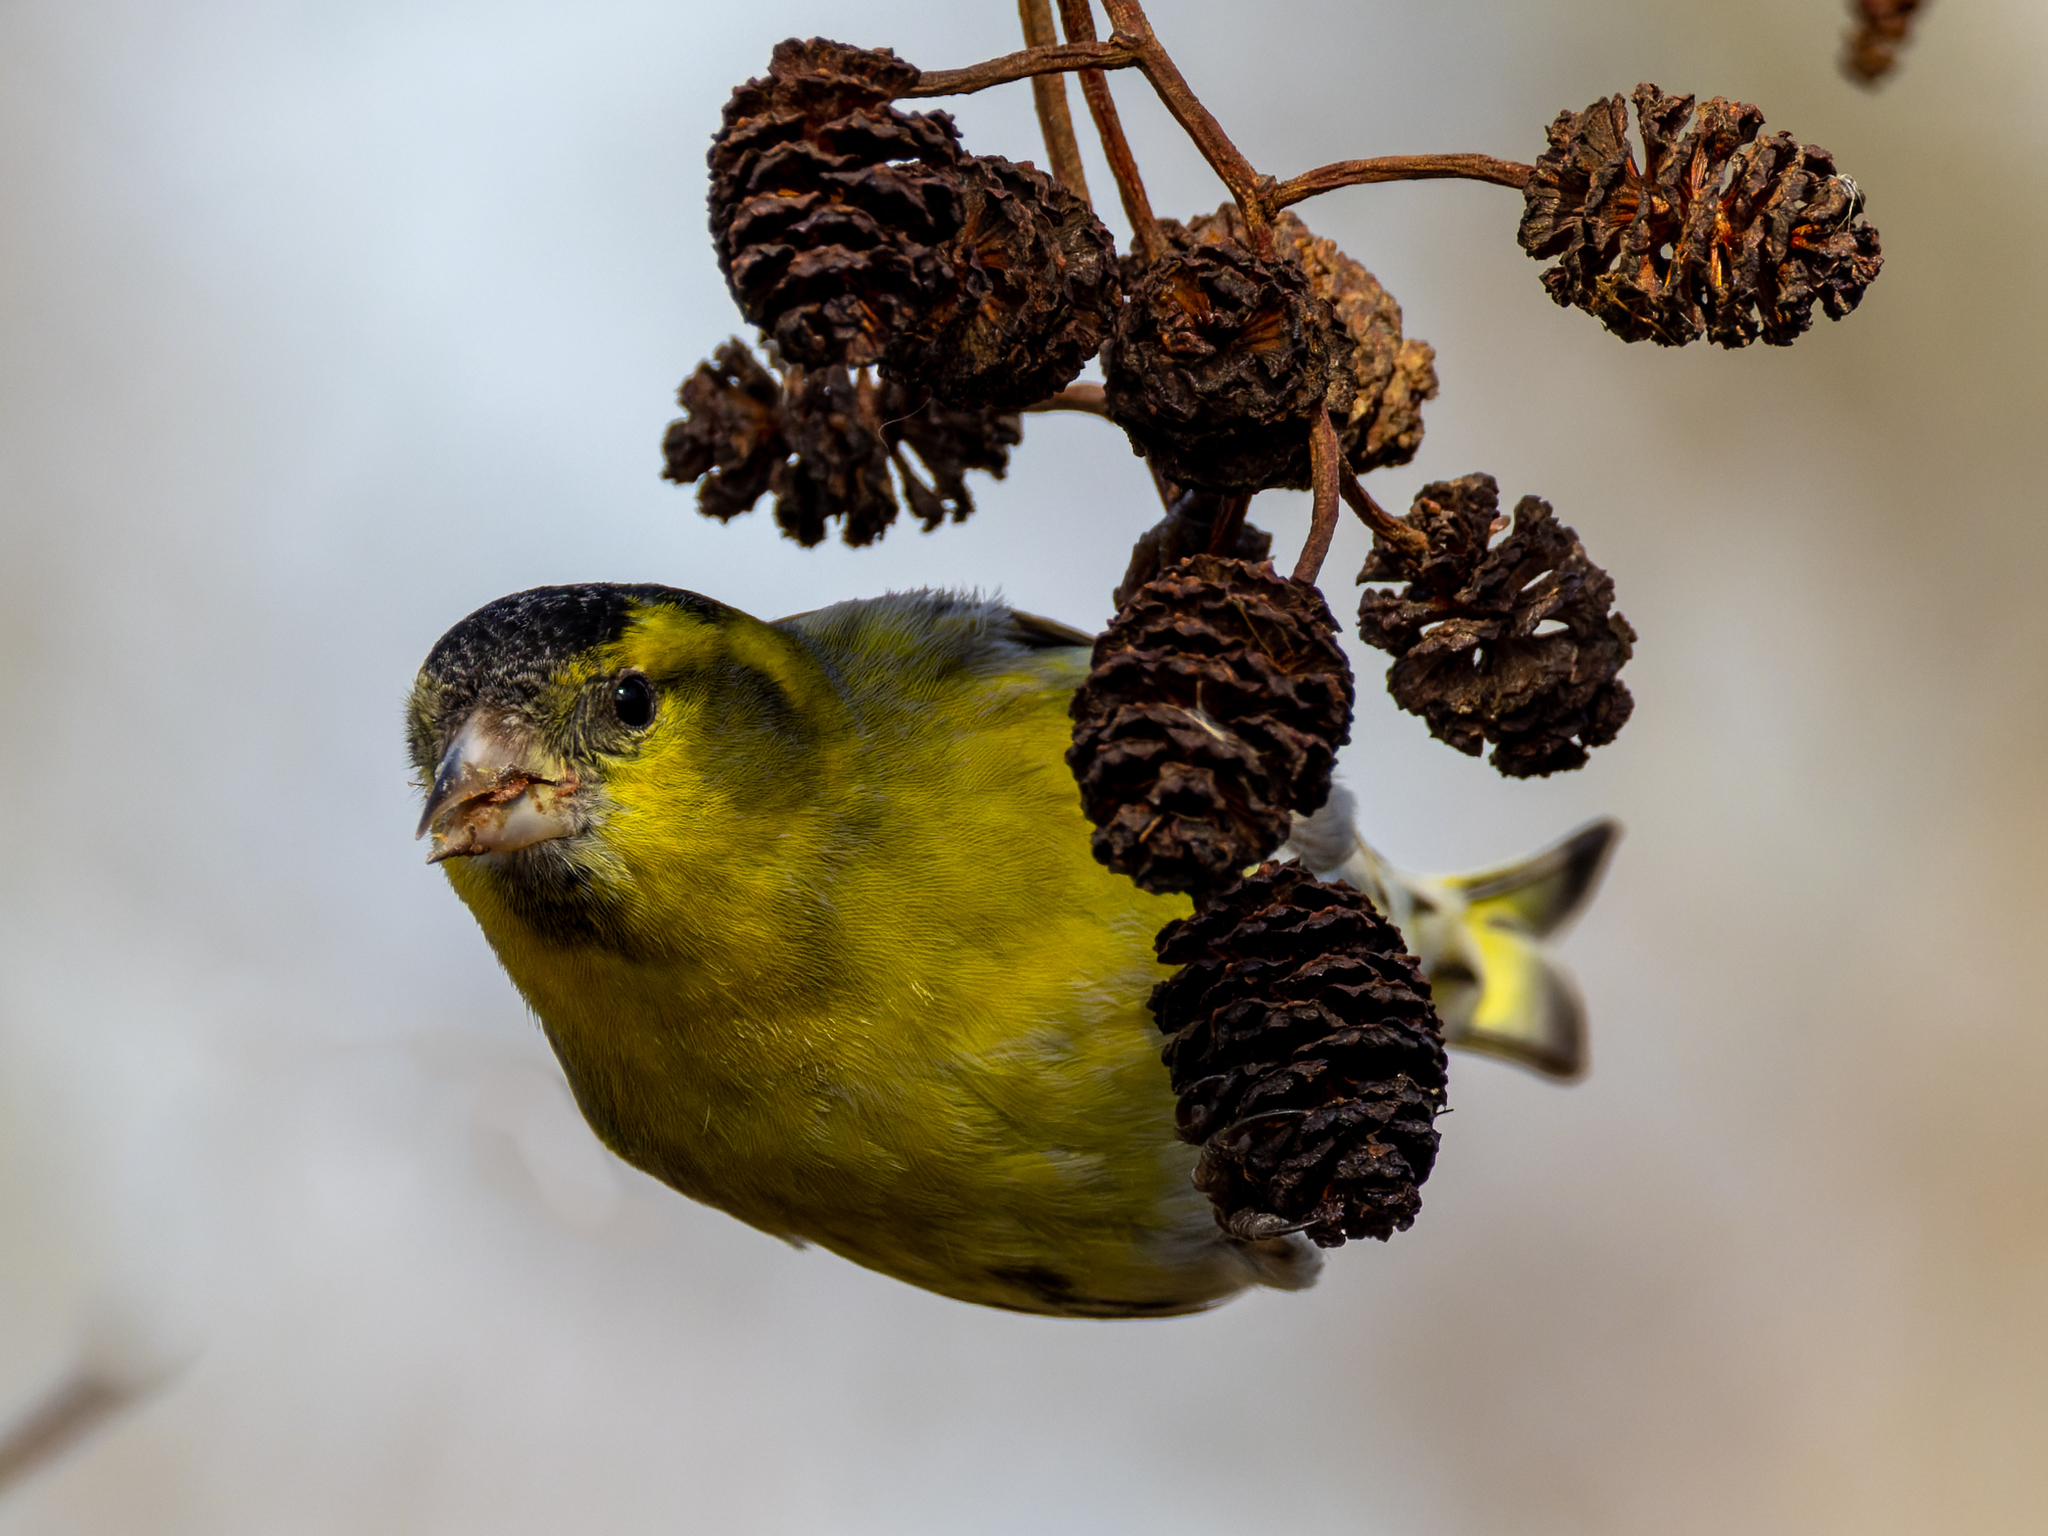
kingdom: Animalia
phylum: Chordata
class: Aves
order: Passeriformes
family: Fringillidae
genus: Spinus
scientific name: Spinus spinus
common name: Eurasian siskin
